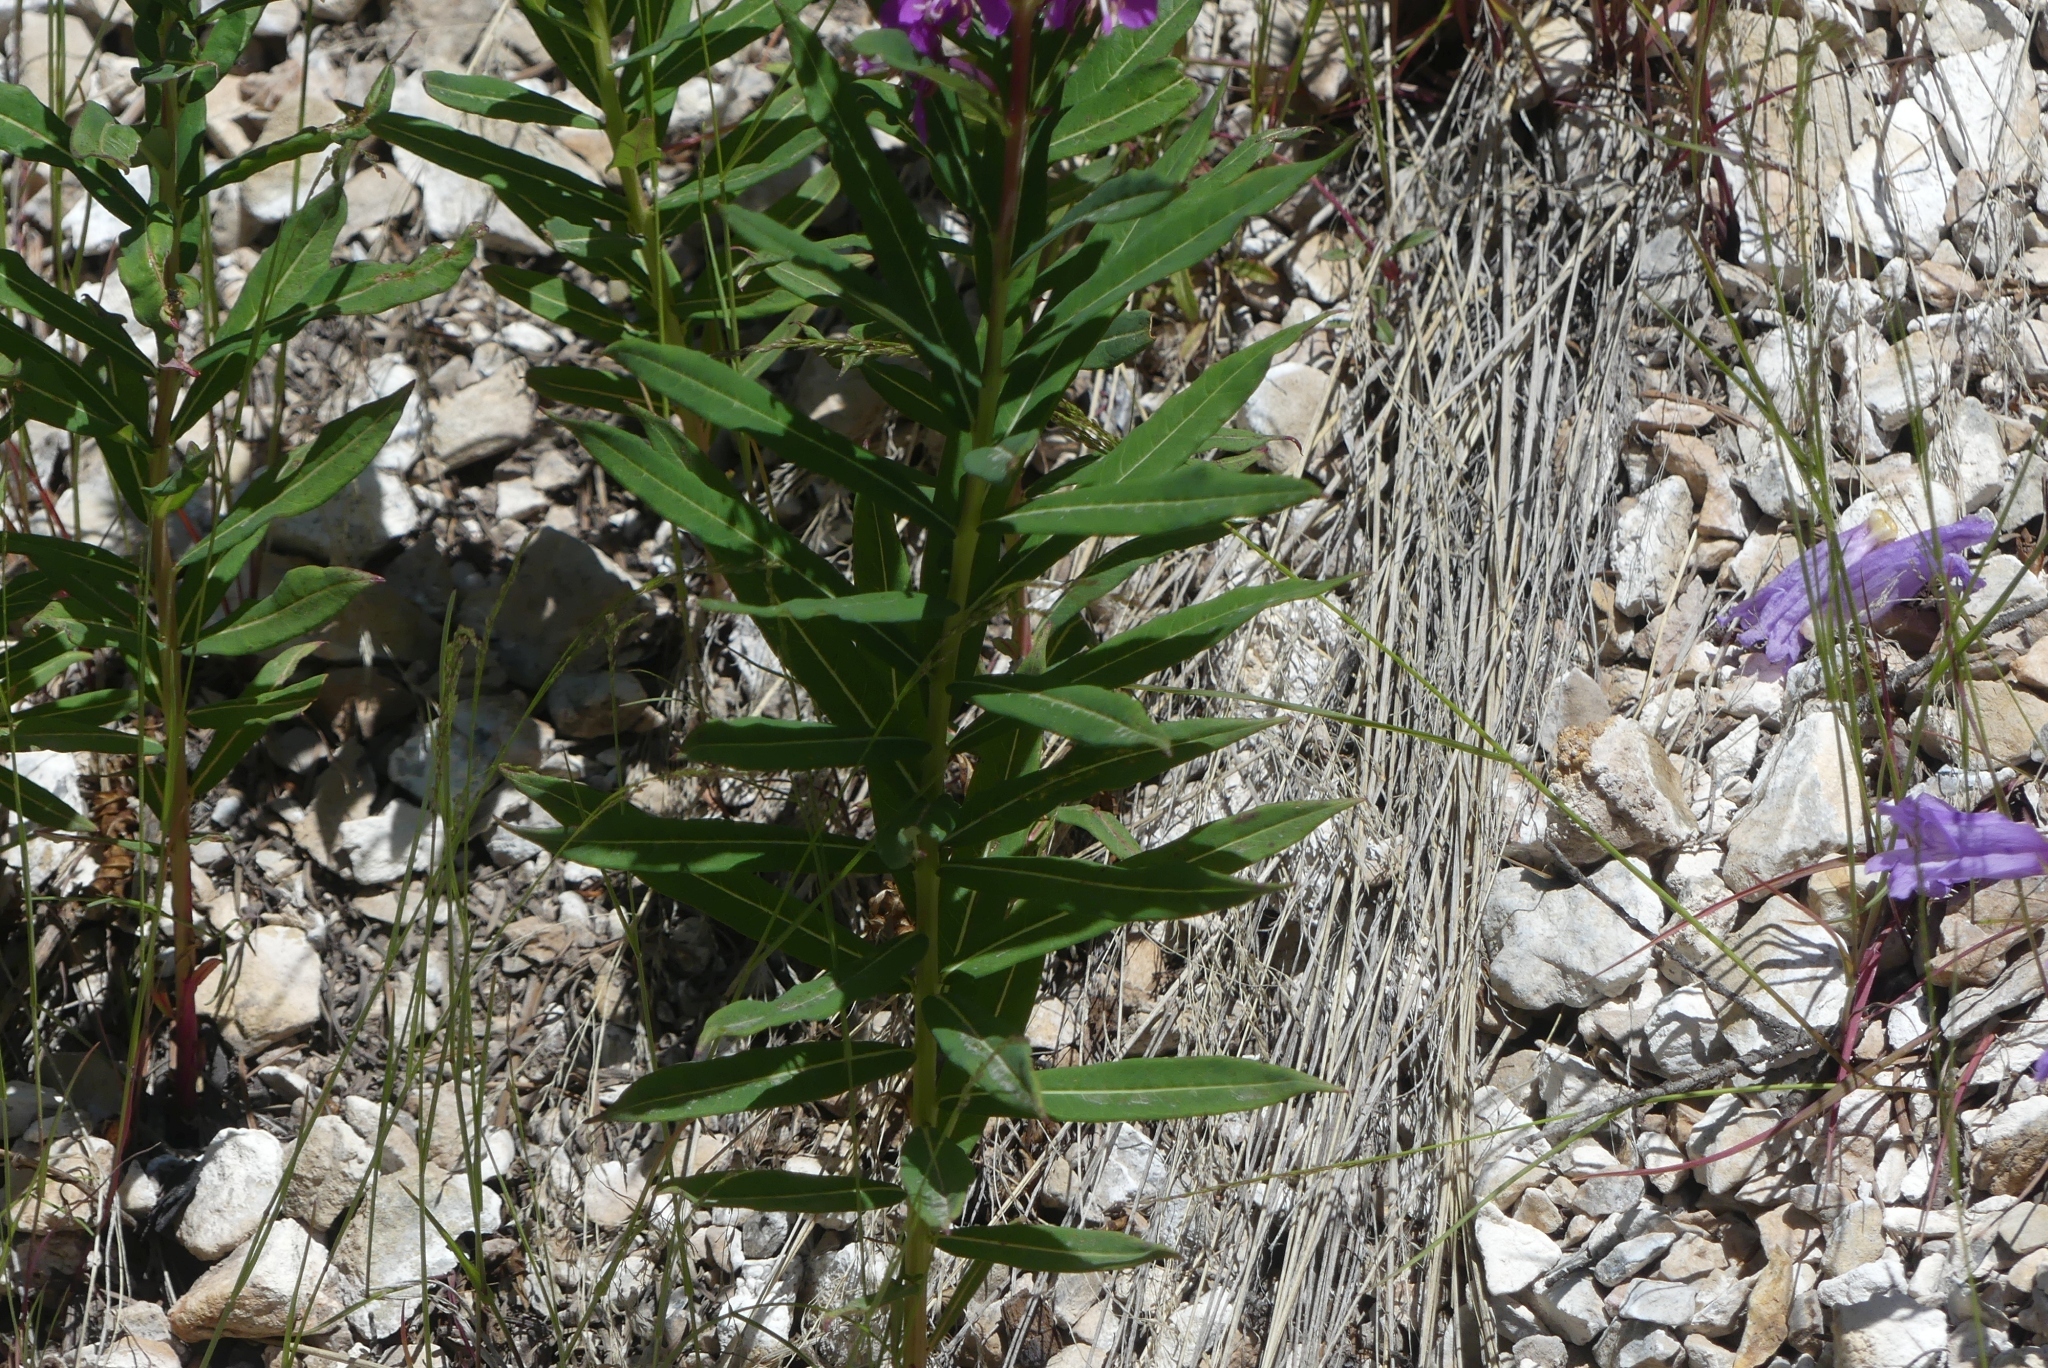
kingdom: Plantae
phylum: Tracheophyta
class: Magnoliopsida
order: Myrtales
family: Onagraceae
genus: Chamaenerion
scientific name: Chamaenerion angustifolium
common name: Fireweed
